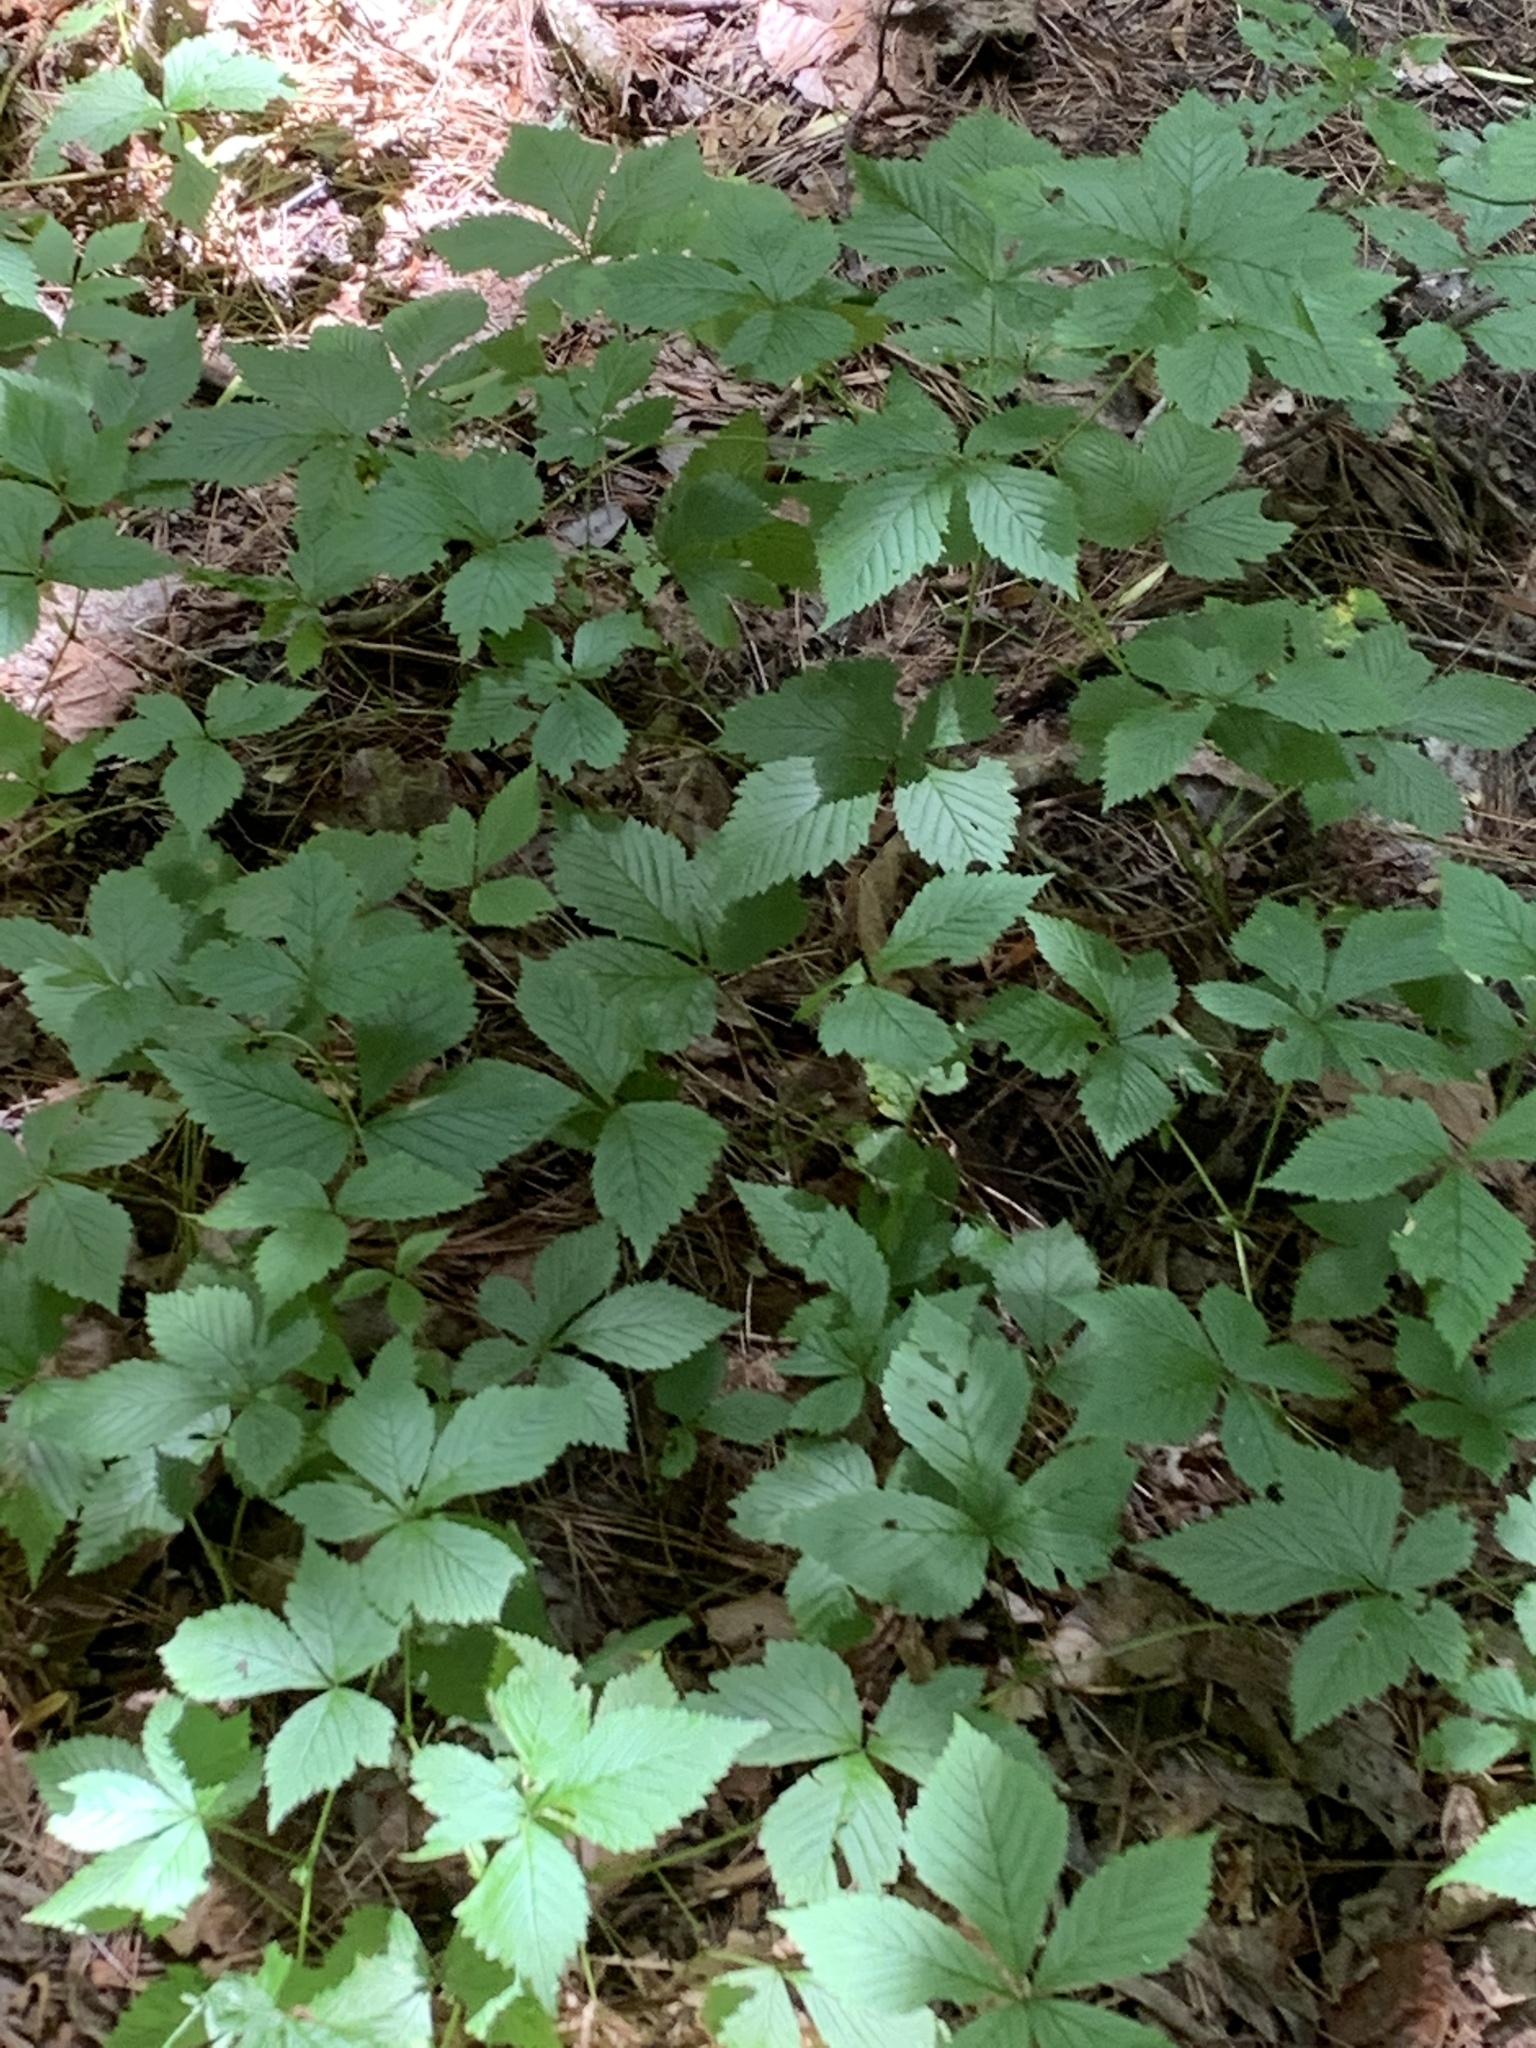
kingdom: Plantae
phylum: Tracheophyta
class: Magnoliopsida
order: Rosales
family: Rosaceae
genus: Rubus
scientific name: Rubus pubescens
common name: Dwarf raspberry
